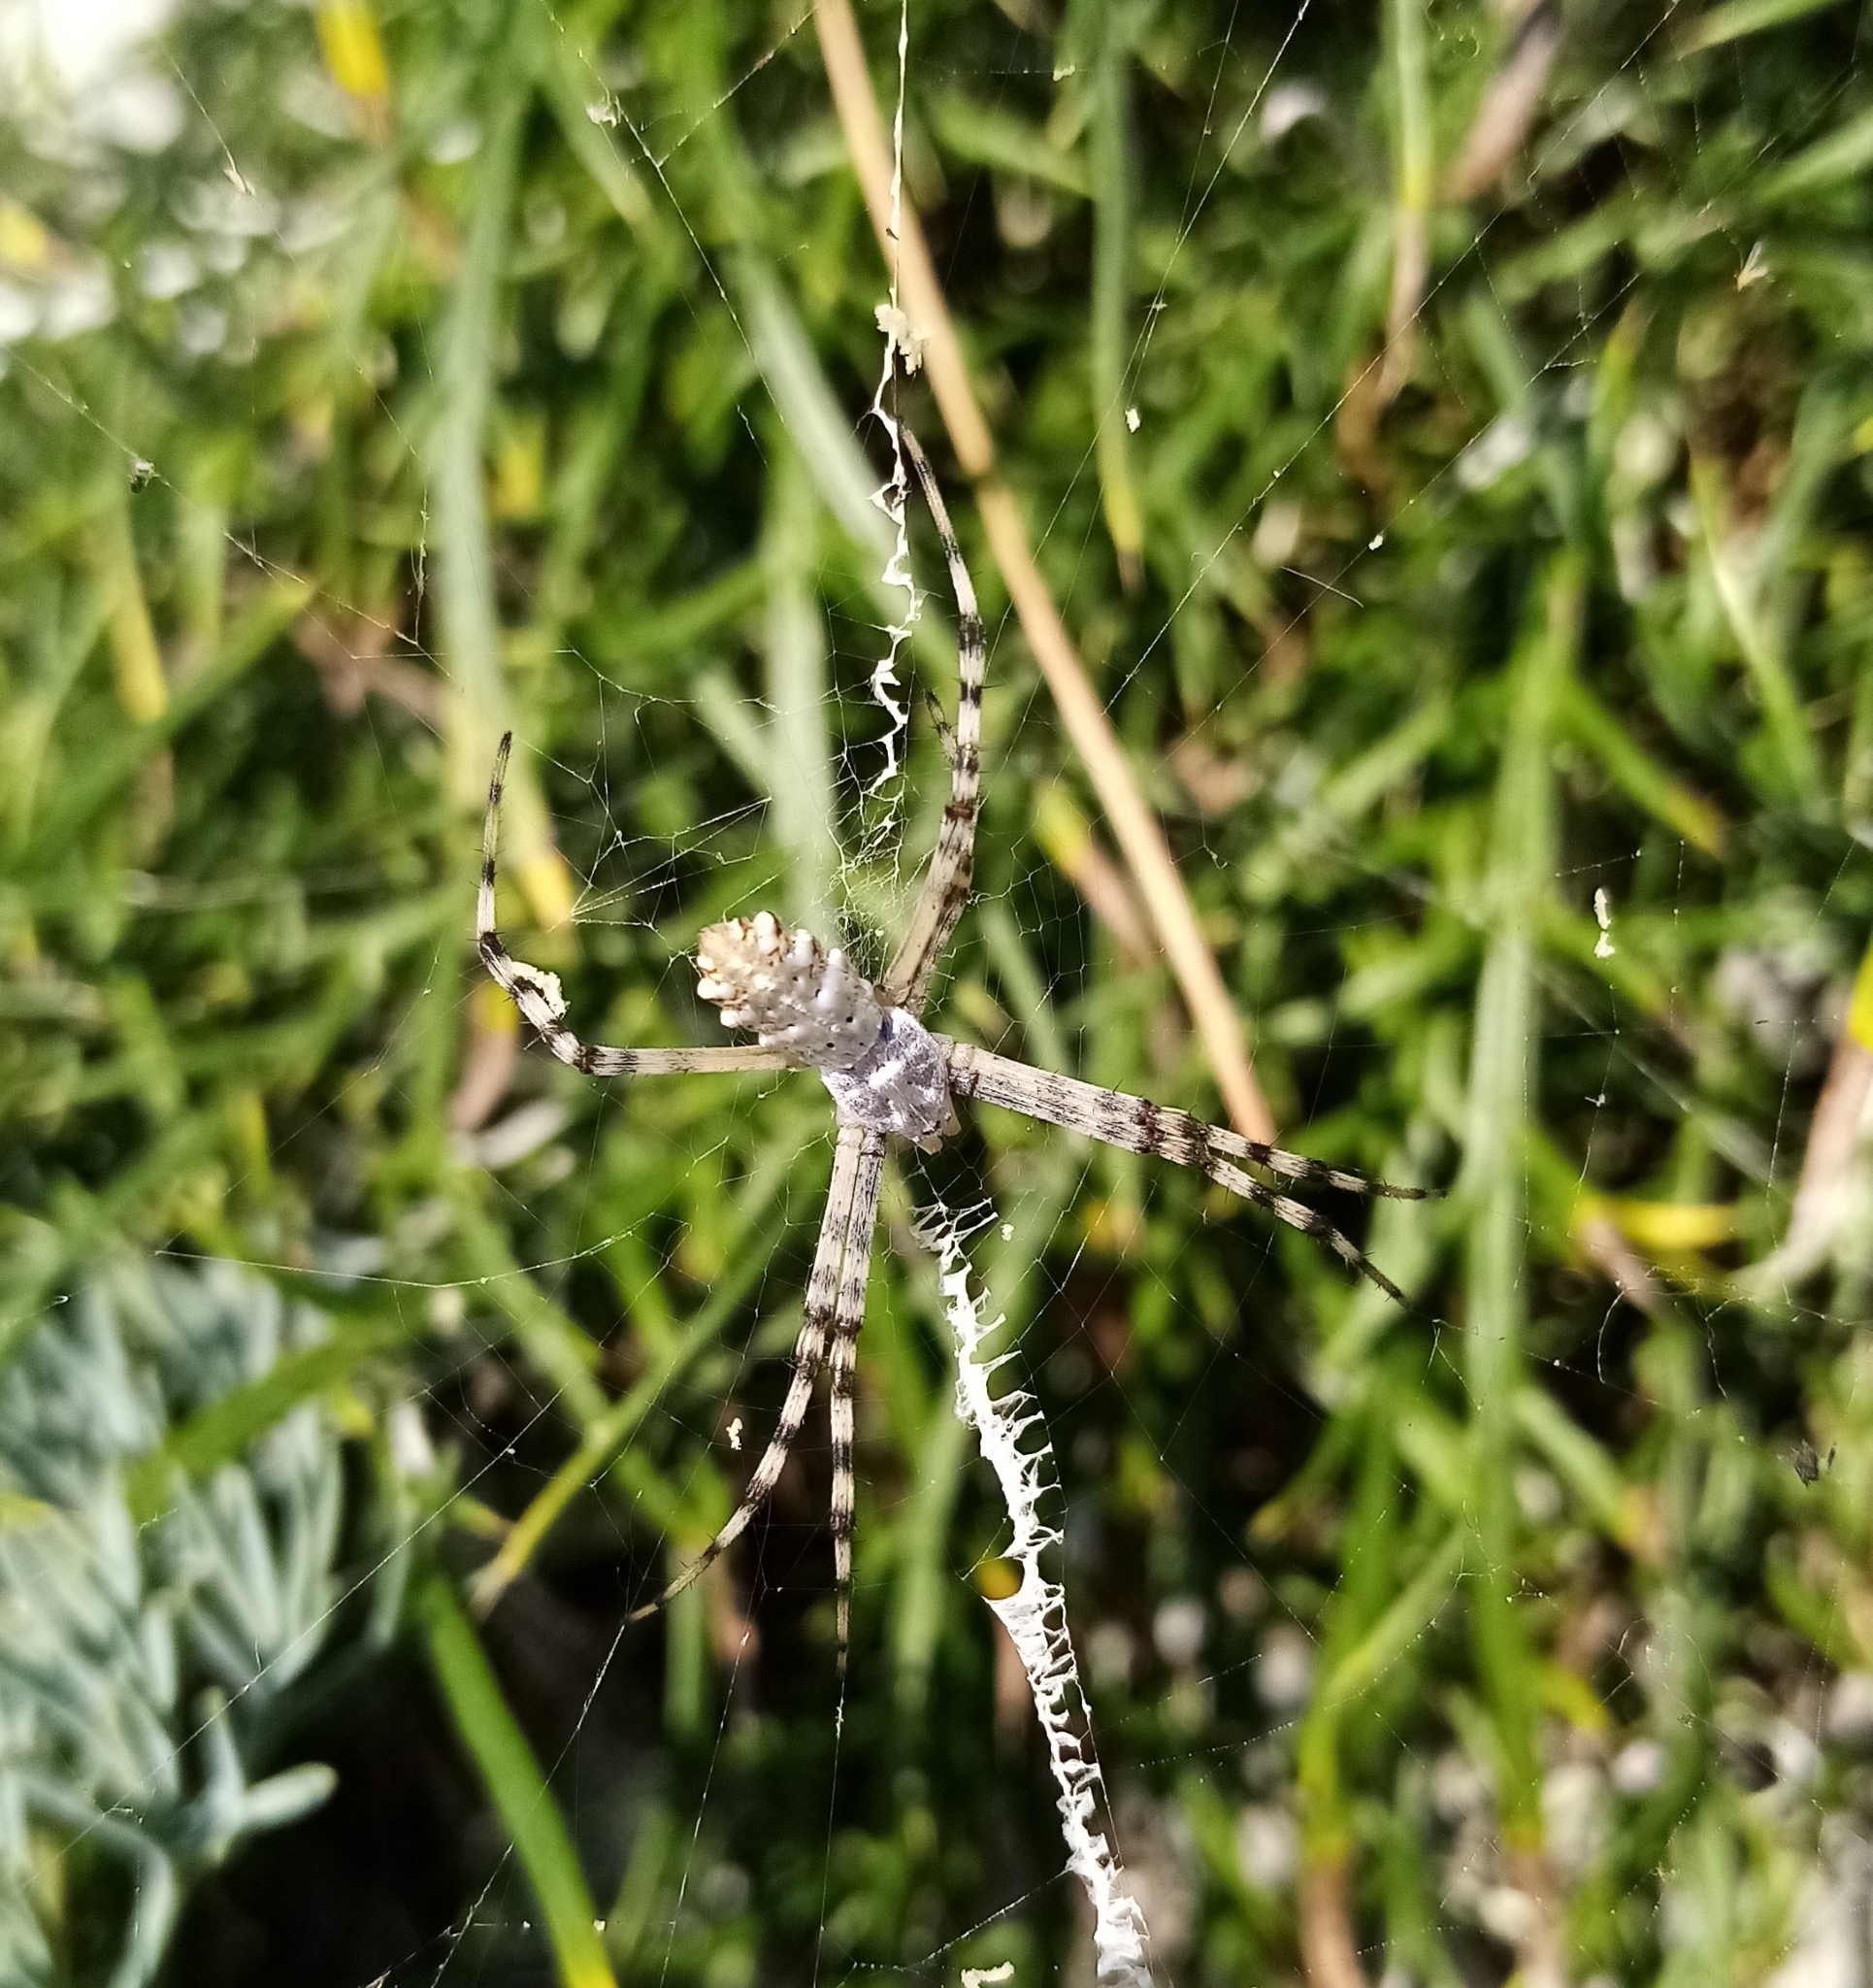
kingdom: Animalia
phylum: Arthropoda
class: Arachnida
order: Araneae
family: Araneidae
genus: Argiope
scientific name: Argiope lobata
